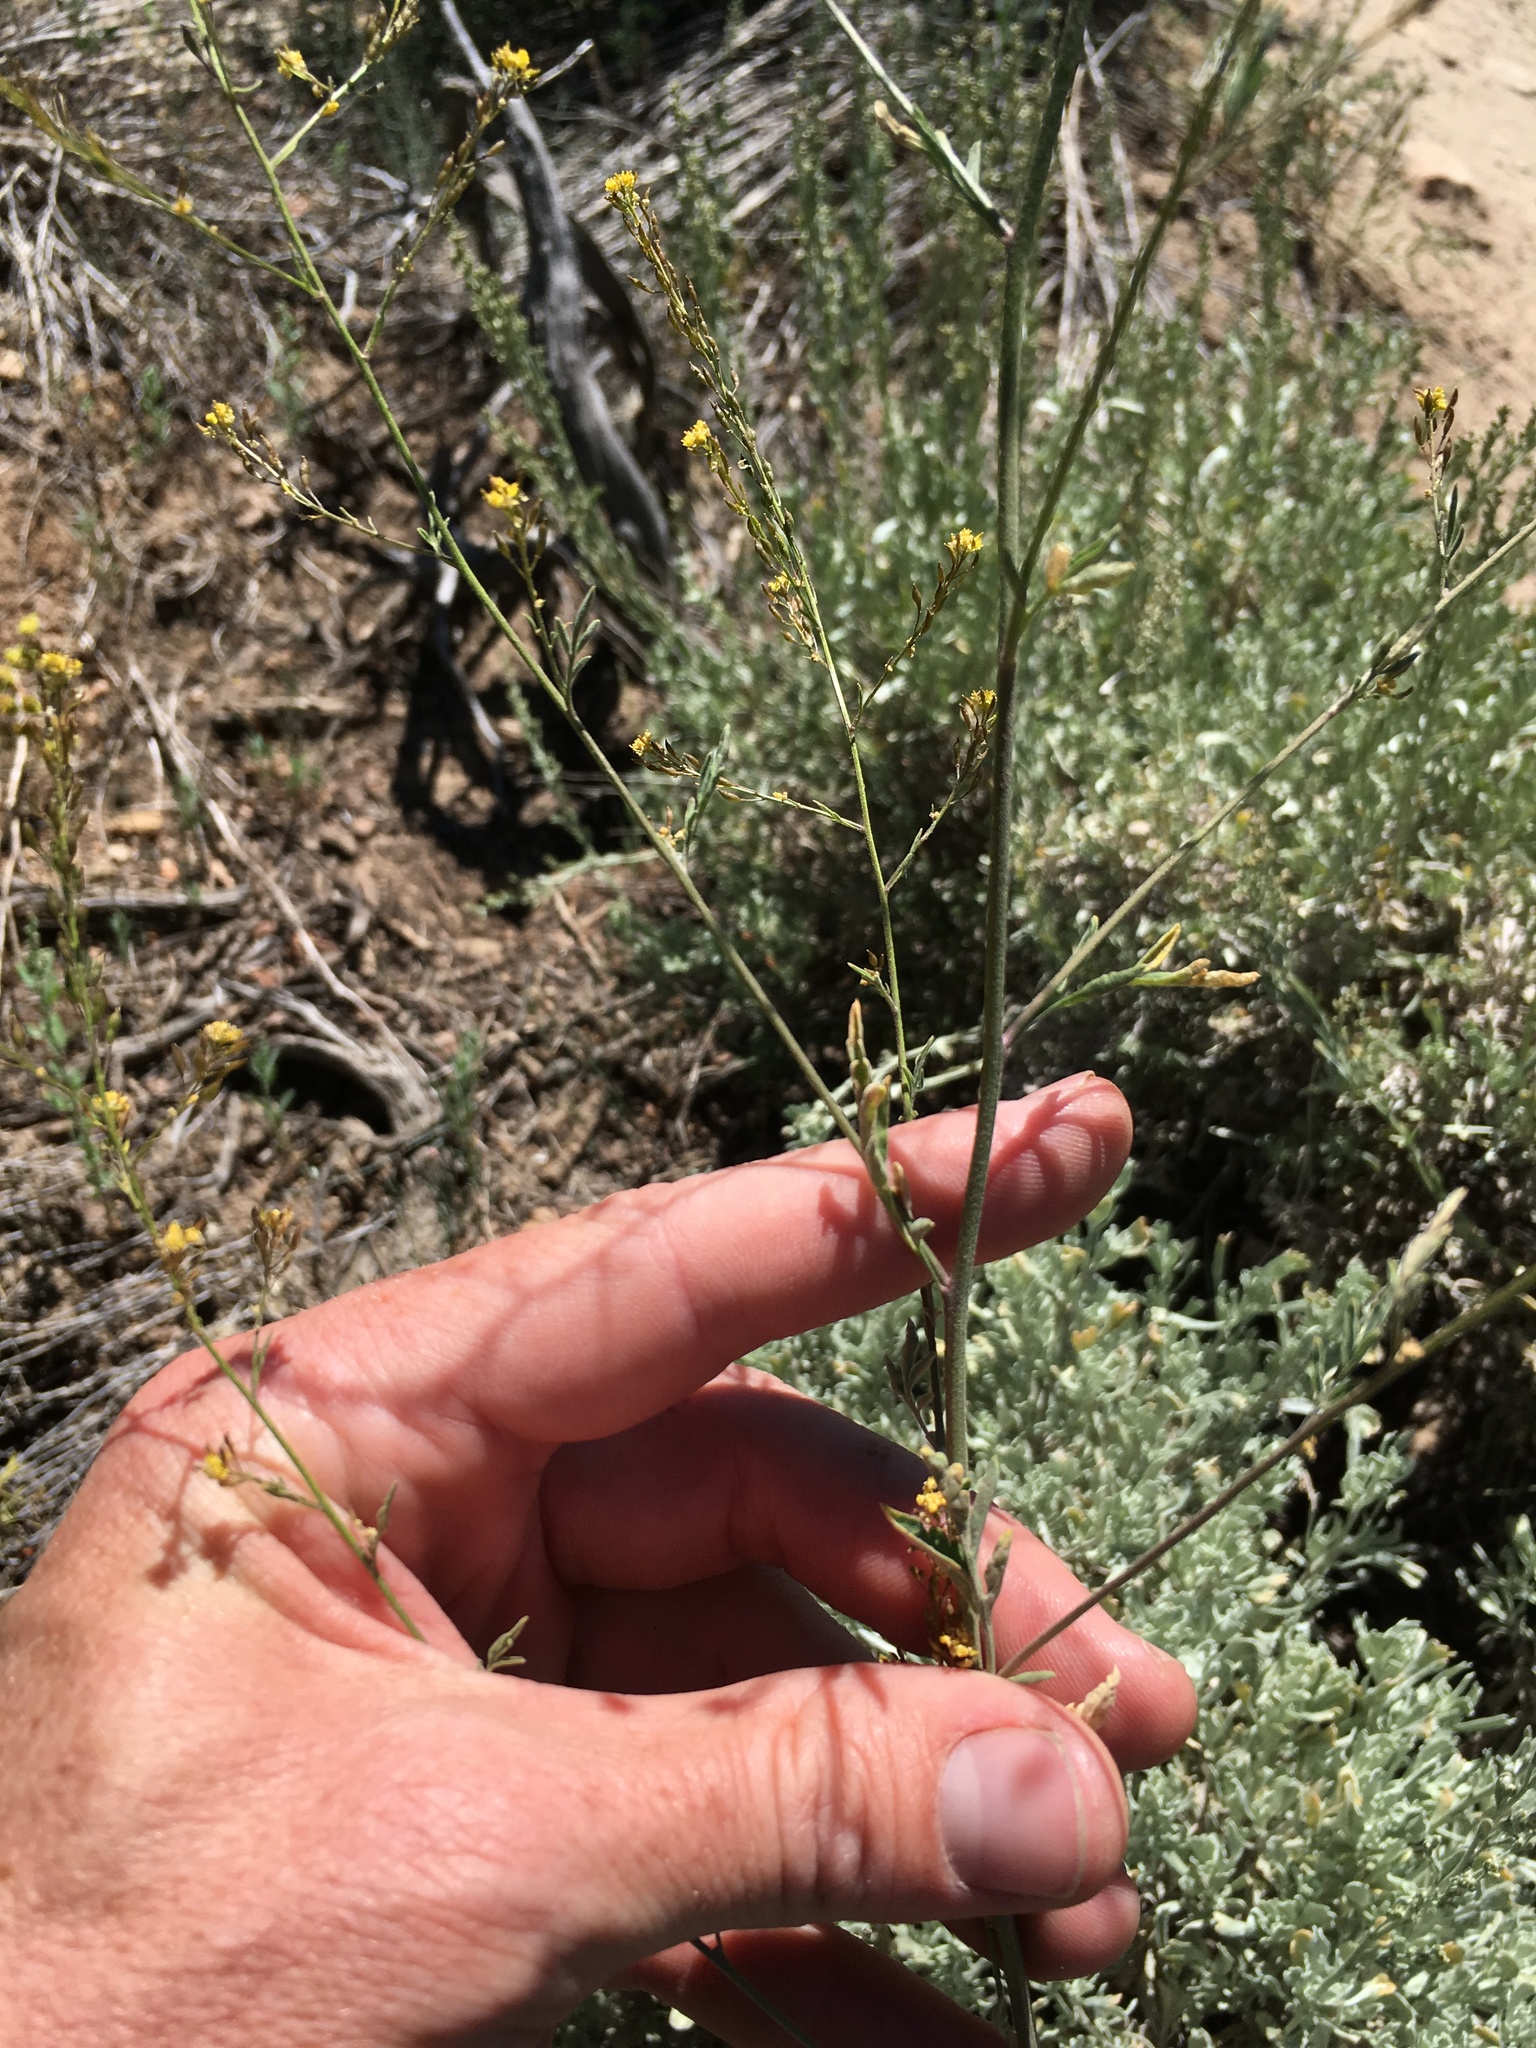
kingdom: Plantae
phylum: Tracheophyta
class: Magnoliopsida
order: Brassicales
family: Brassicaceae
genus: Descurainia
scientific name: Descurainia californica
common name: California tansy mustard
